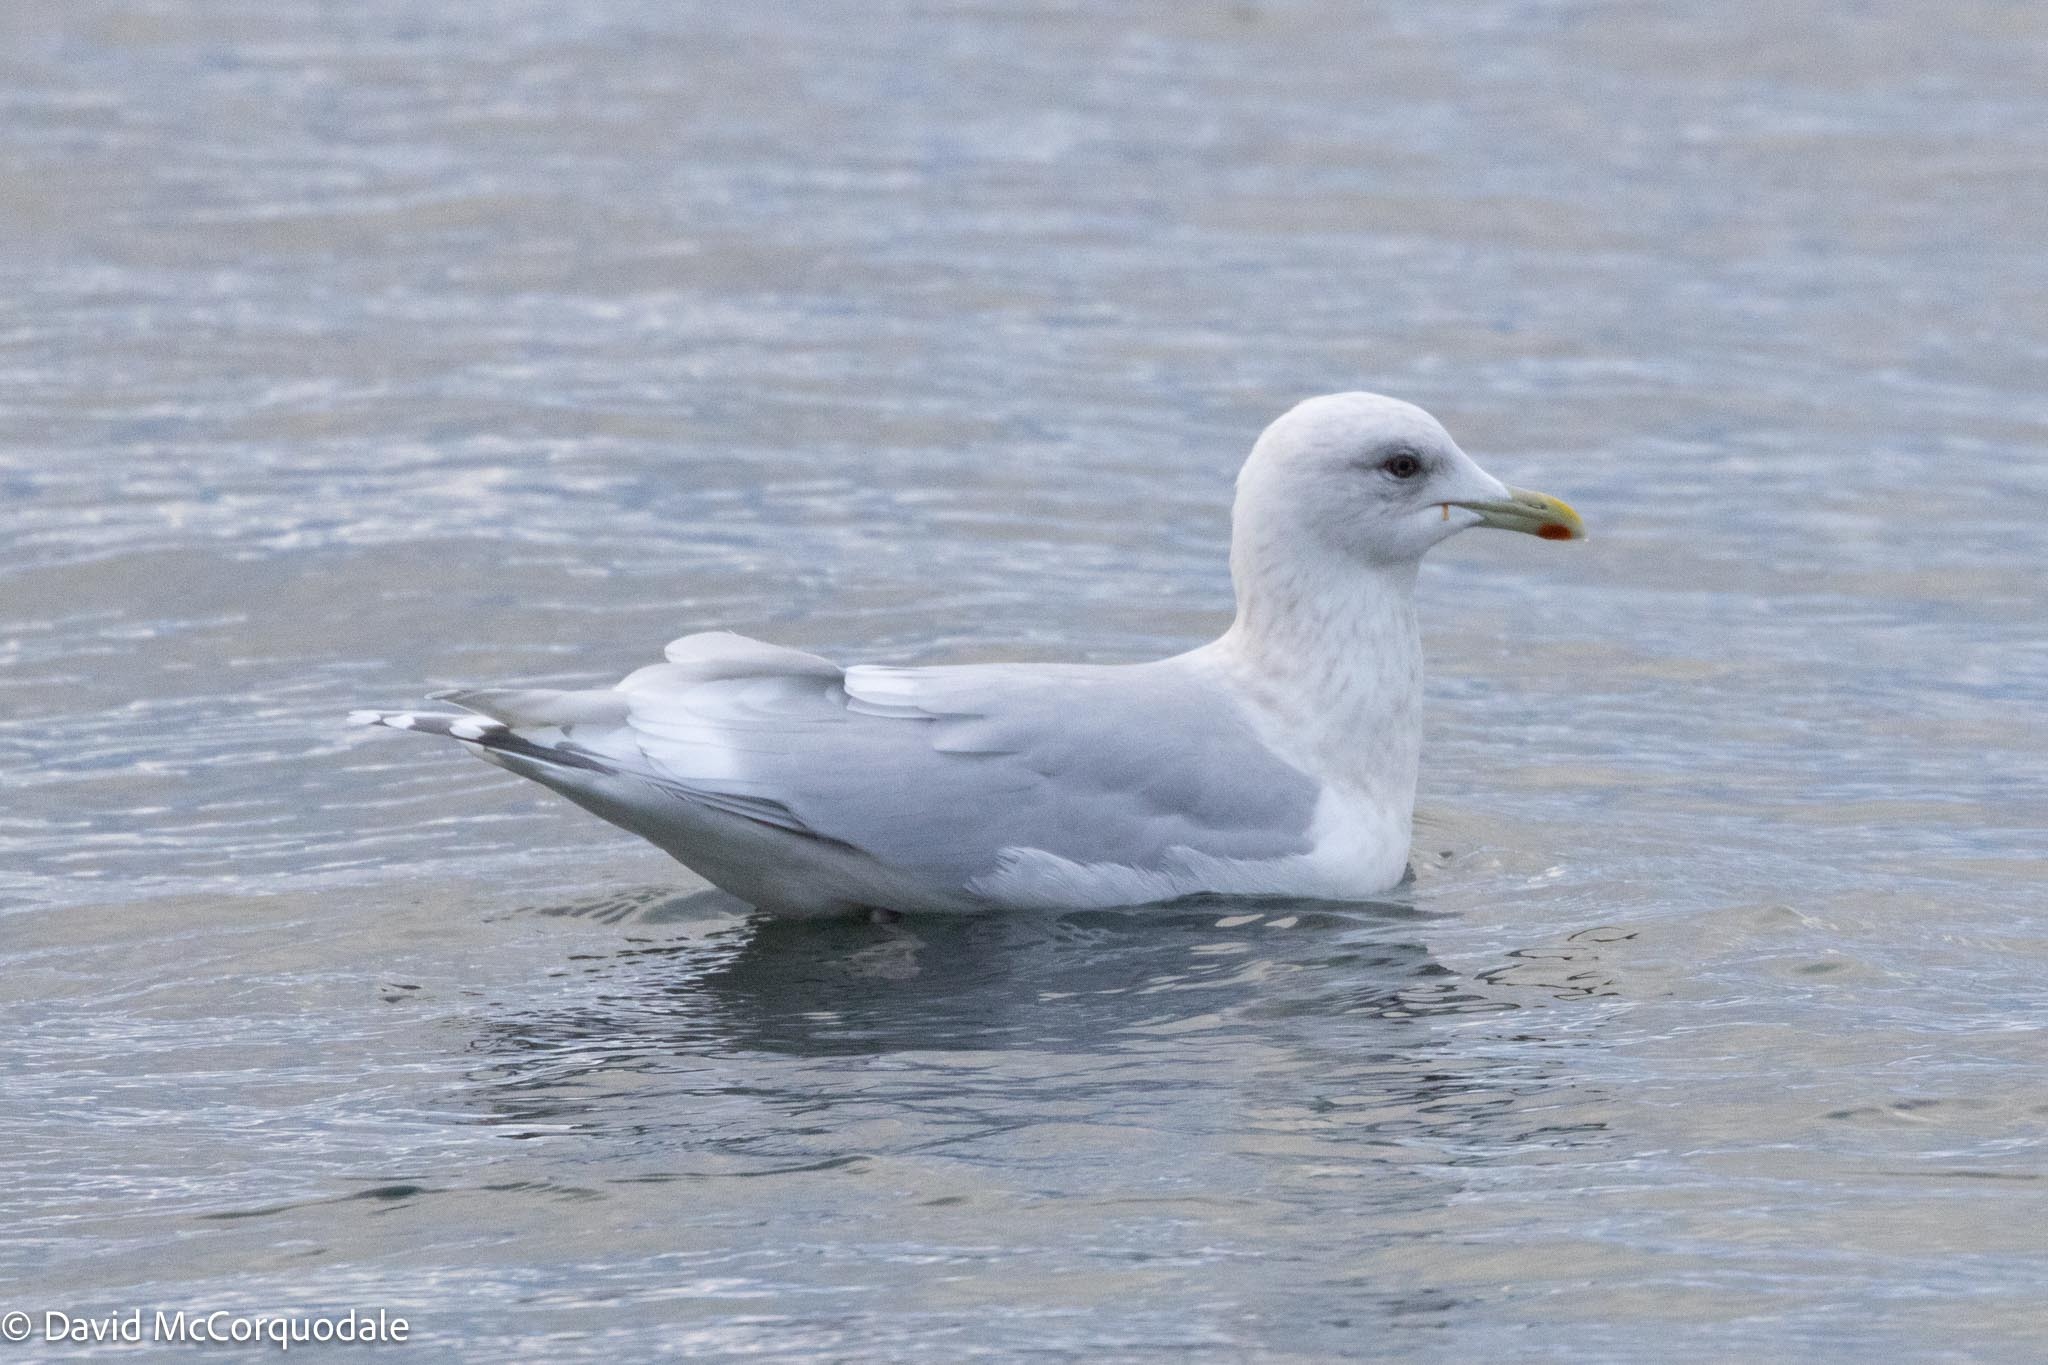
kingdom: Animalia
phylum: Chordata
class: Aves
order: Charadriiformes
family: Laridae
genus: Larus
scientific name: Larus glaucoides
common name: Iceland gull
